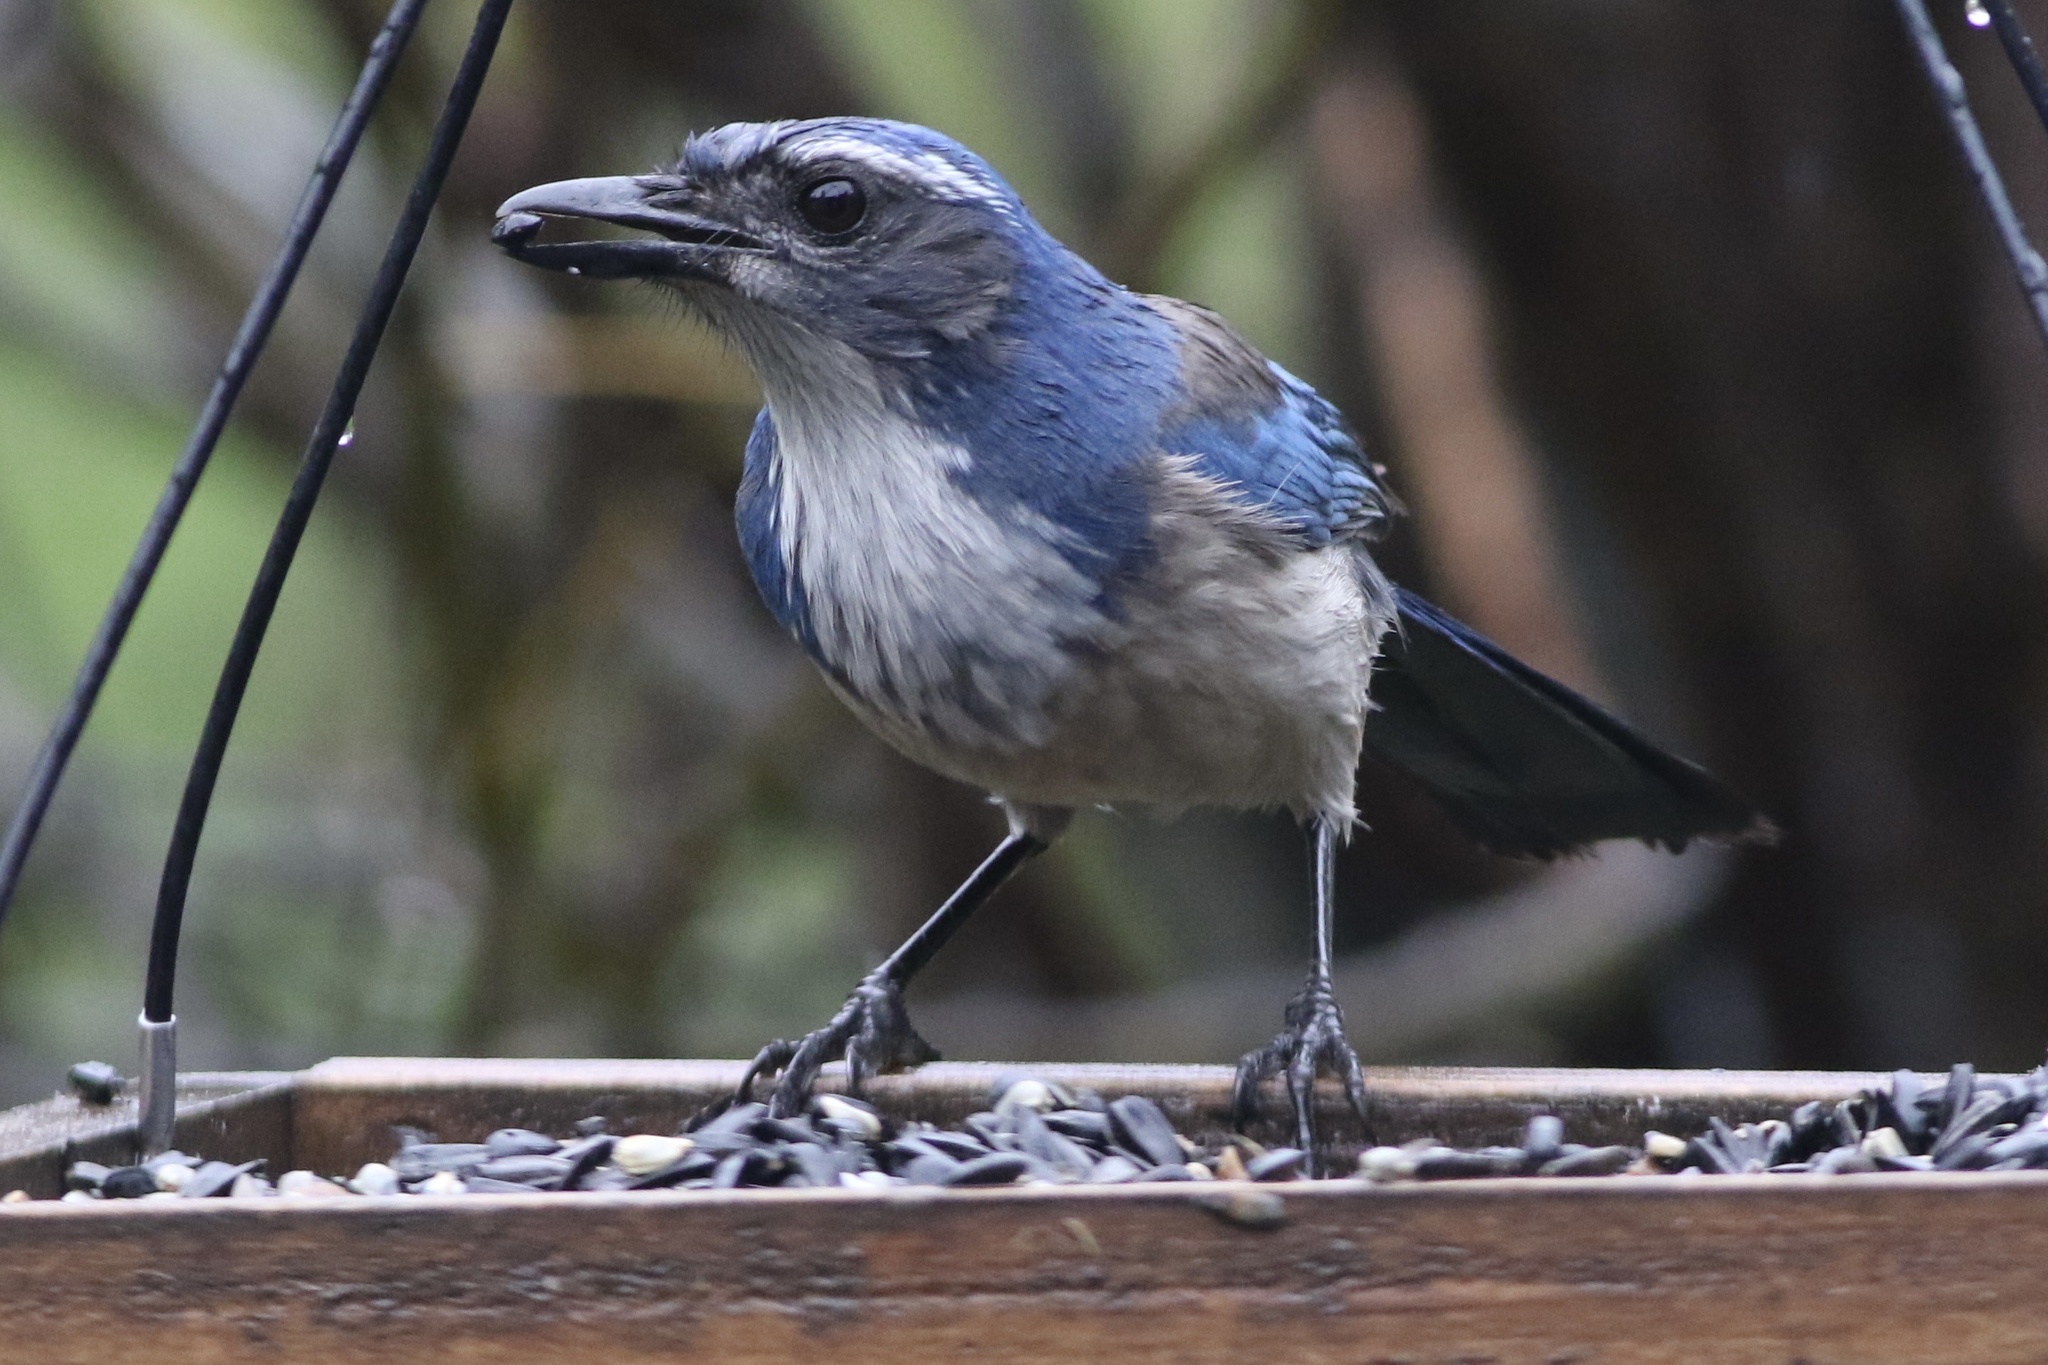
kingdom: Animalia
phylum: Chordata
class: Aves
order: Passeriformes
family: Corvidae
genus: Aphelocoma
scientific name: Aphelocoma californica
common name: California scrub-jay
